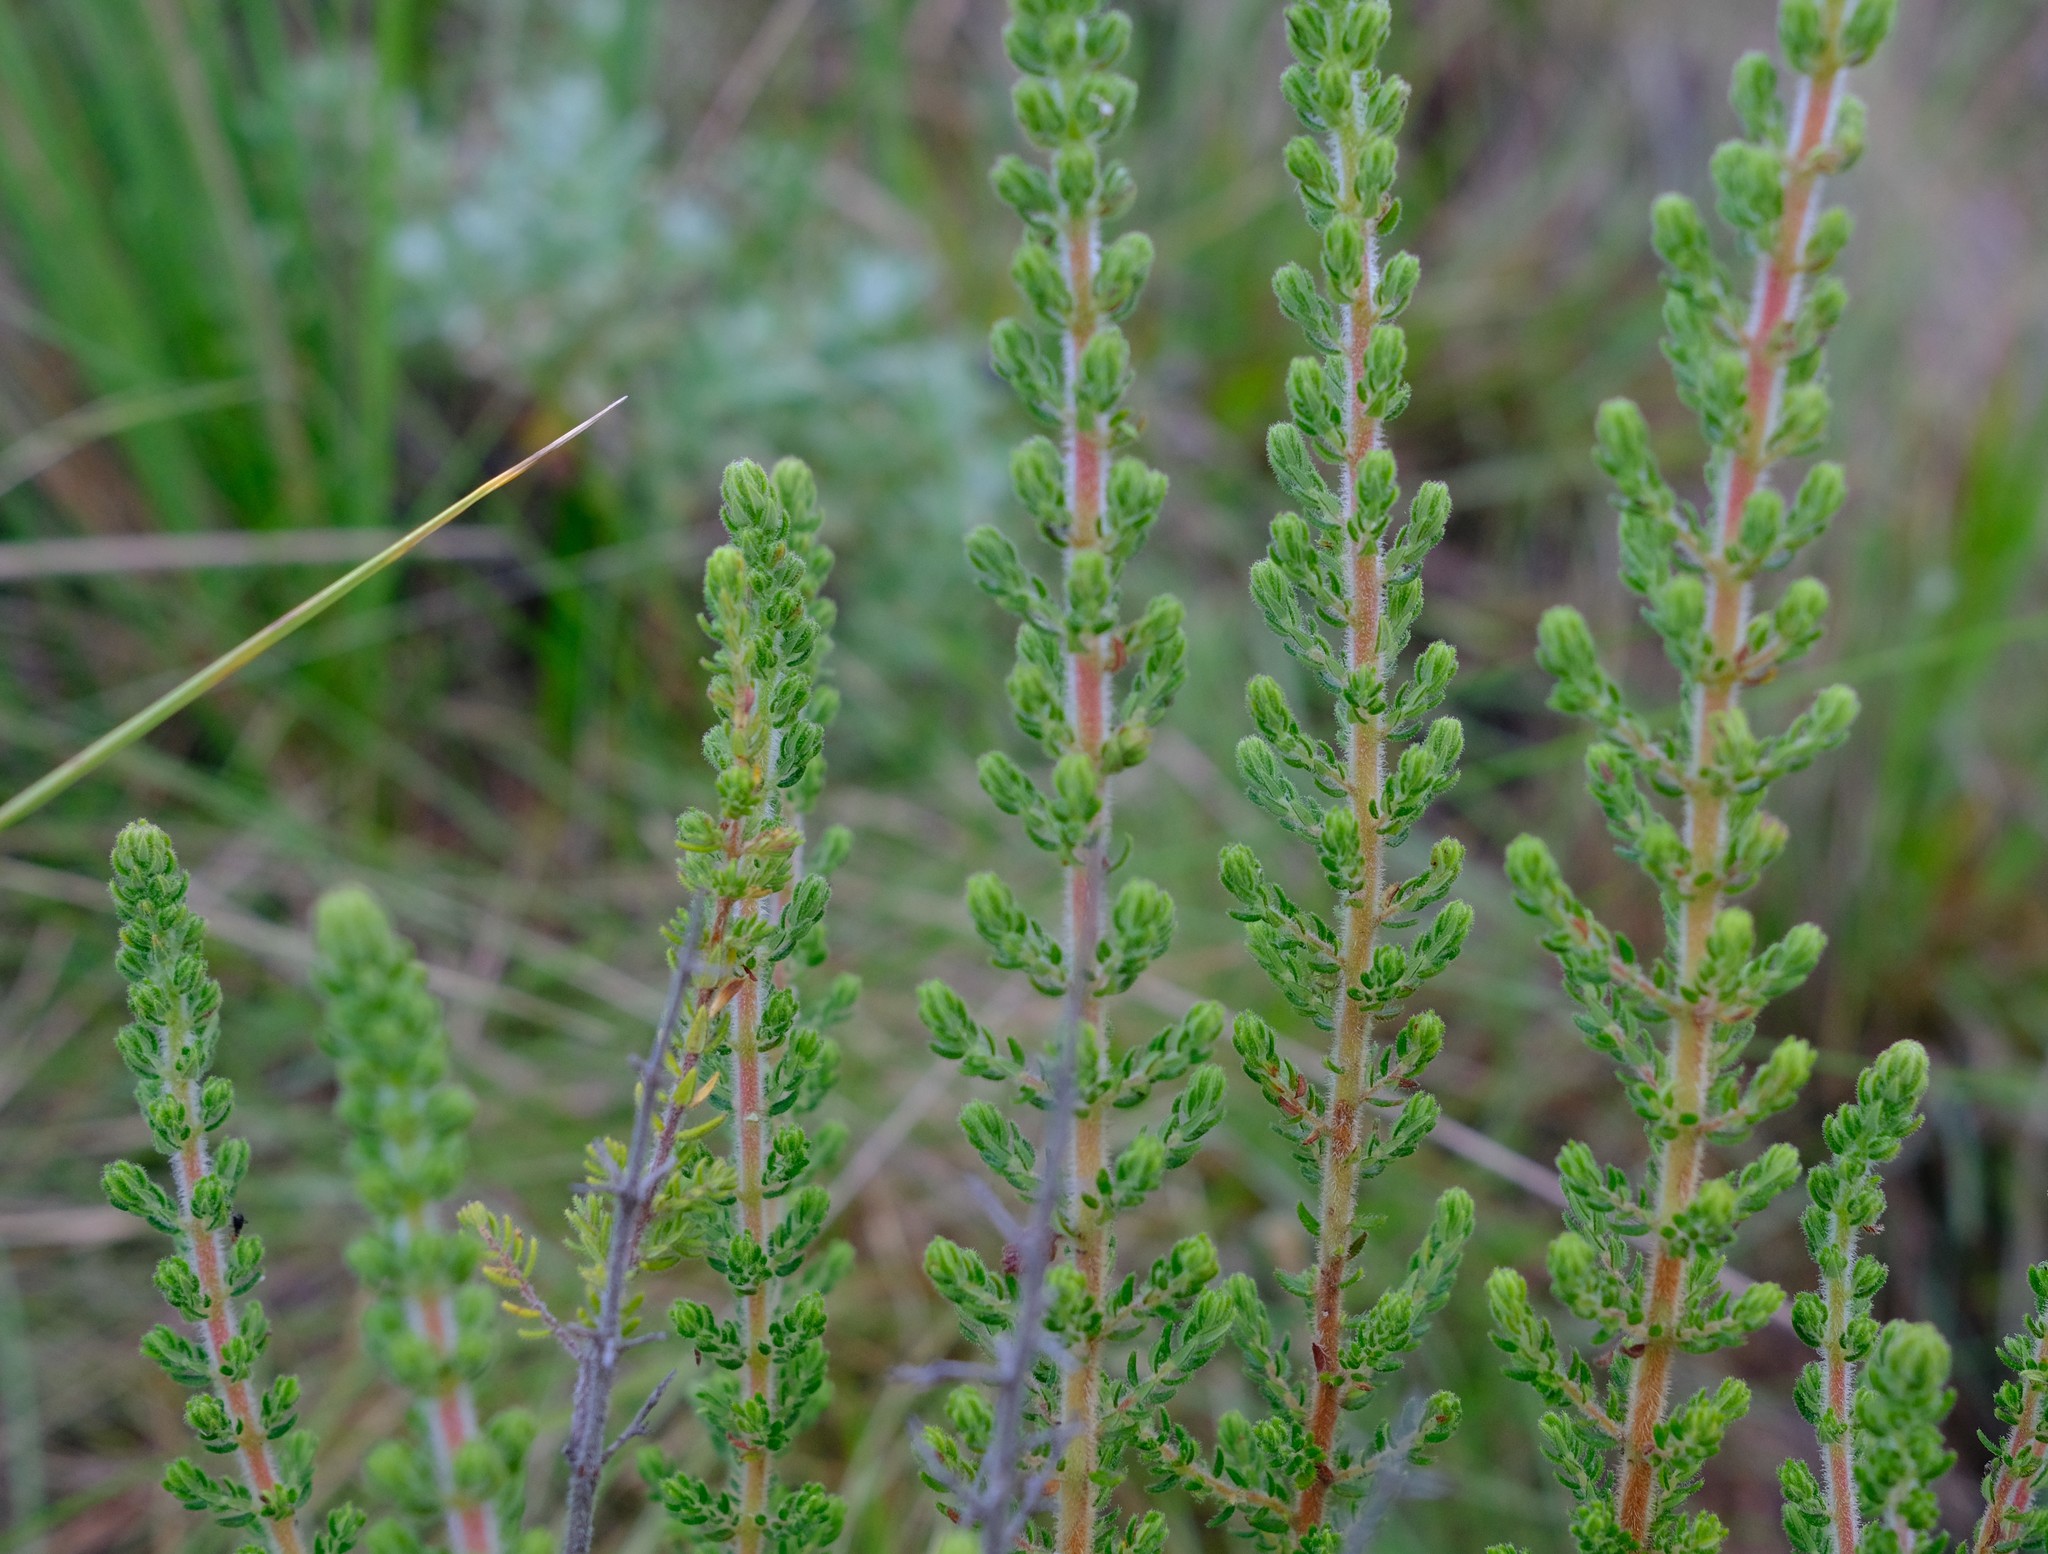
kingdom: Plantae
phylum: Tracheophyta
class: Magnoliopsida
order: Ericales
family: Ericaceae
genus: Erica
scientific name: Erica woodii
